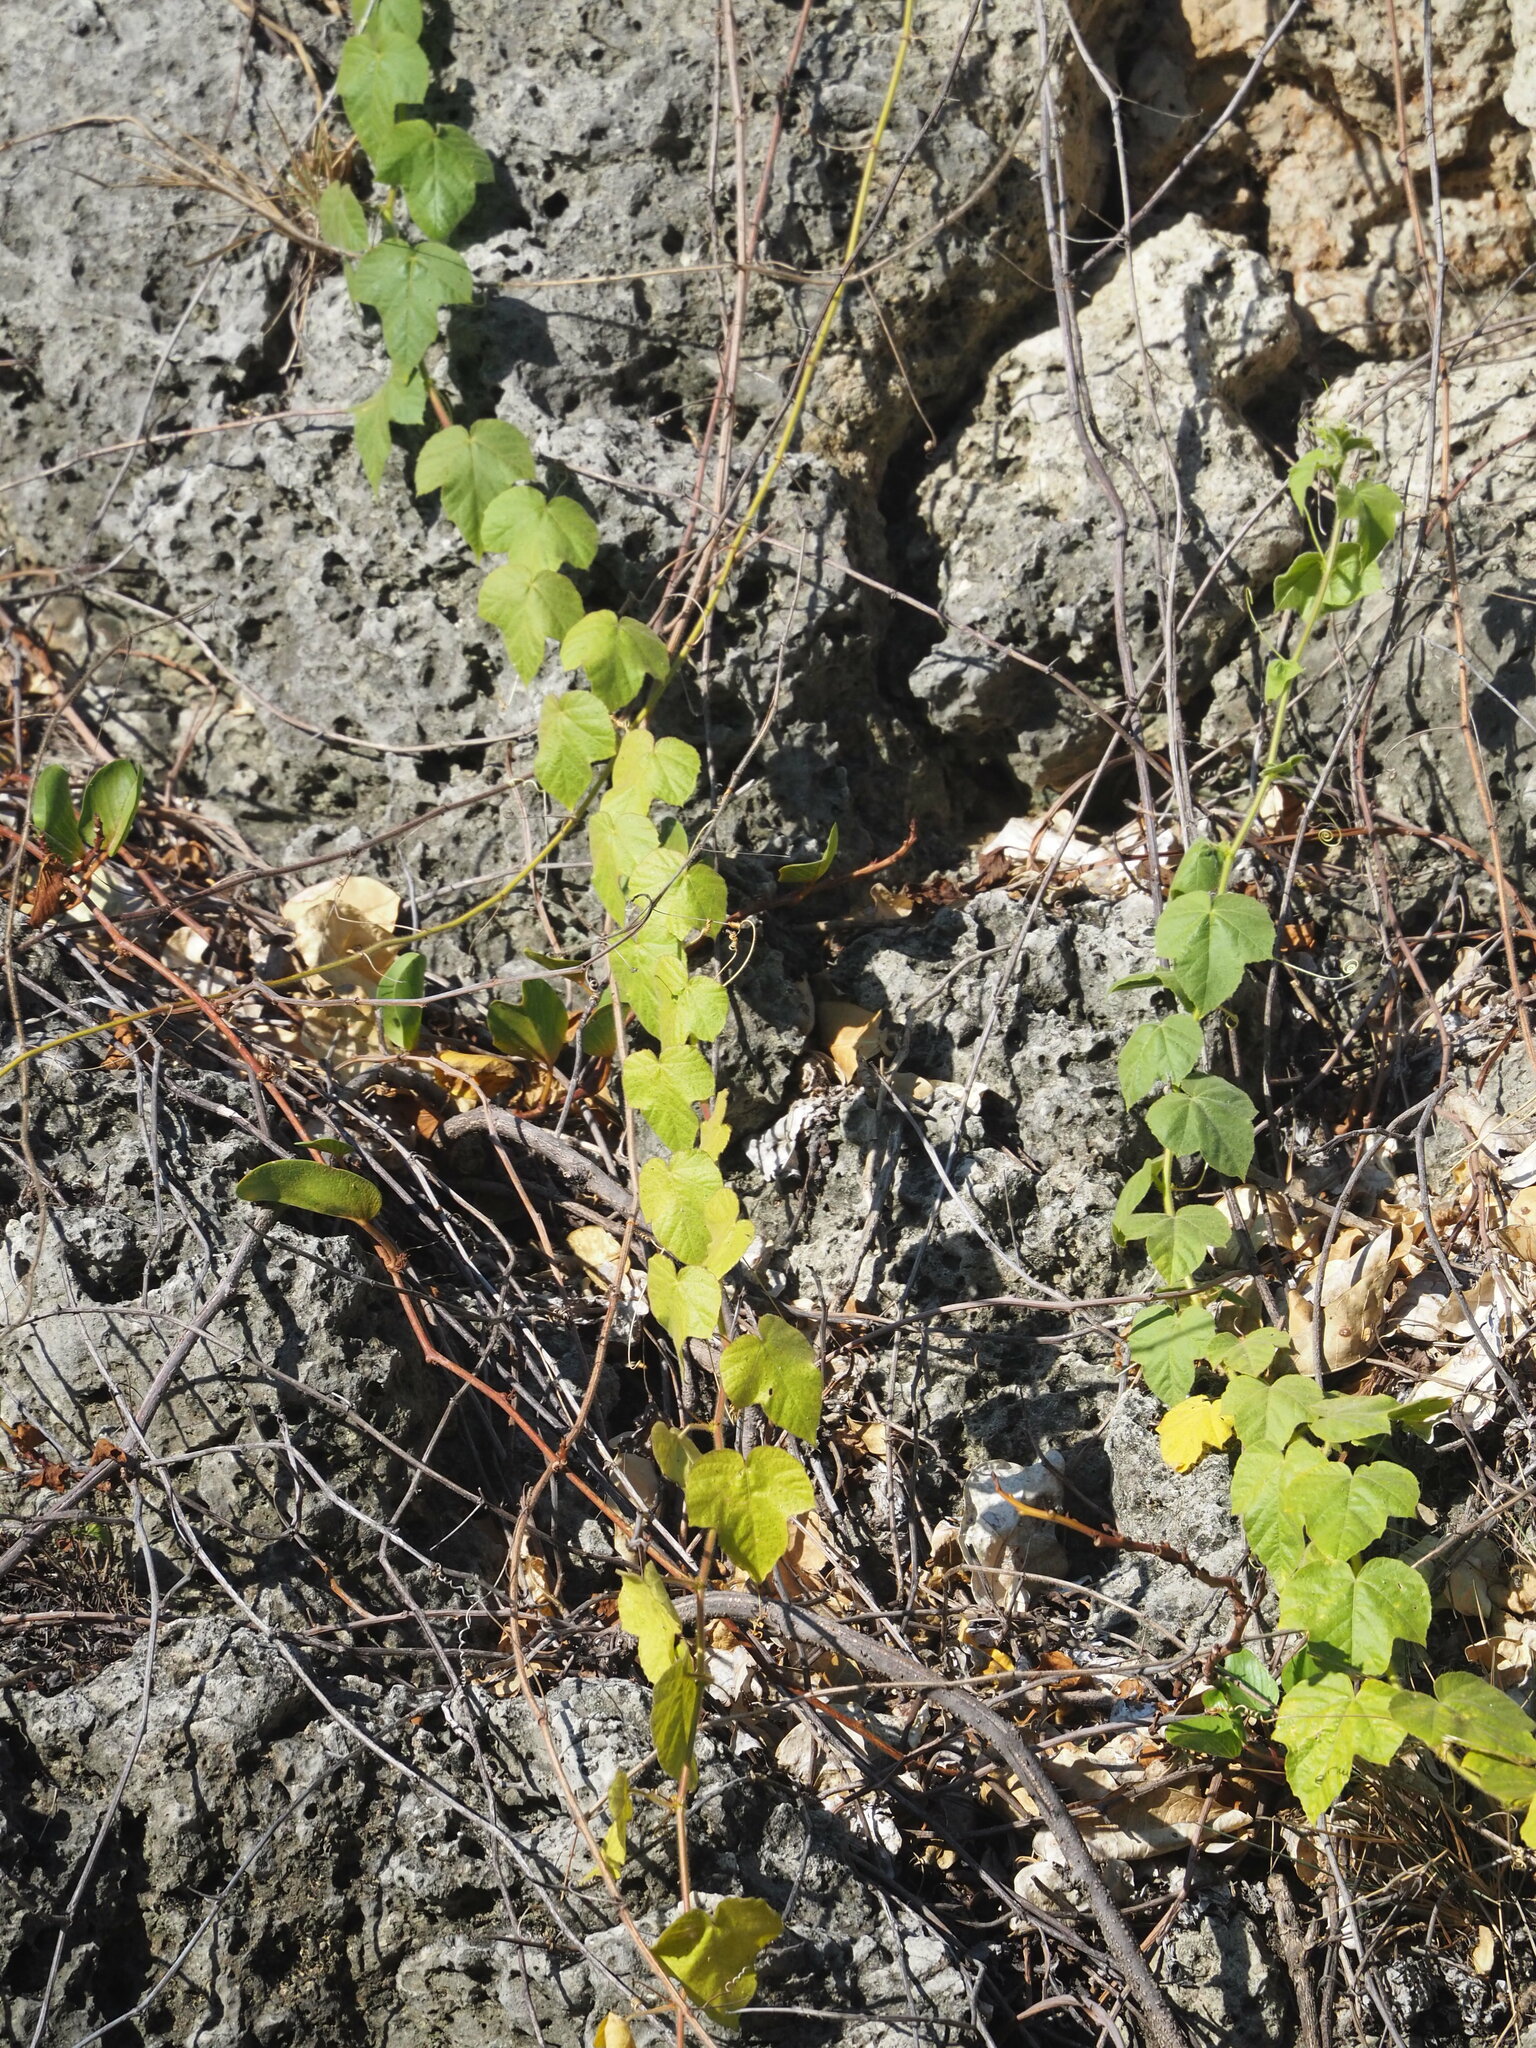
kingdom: Plantae
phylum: Tracheophyta
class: Magnoliopsida
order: Malpighiales
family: Passifloraceae
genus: Passiflora
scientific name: Passiflora vesicaria
